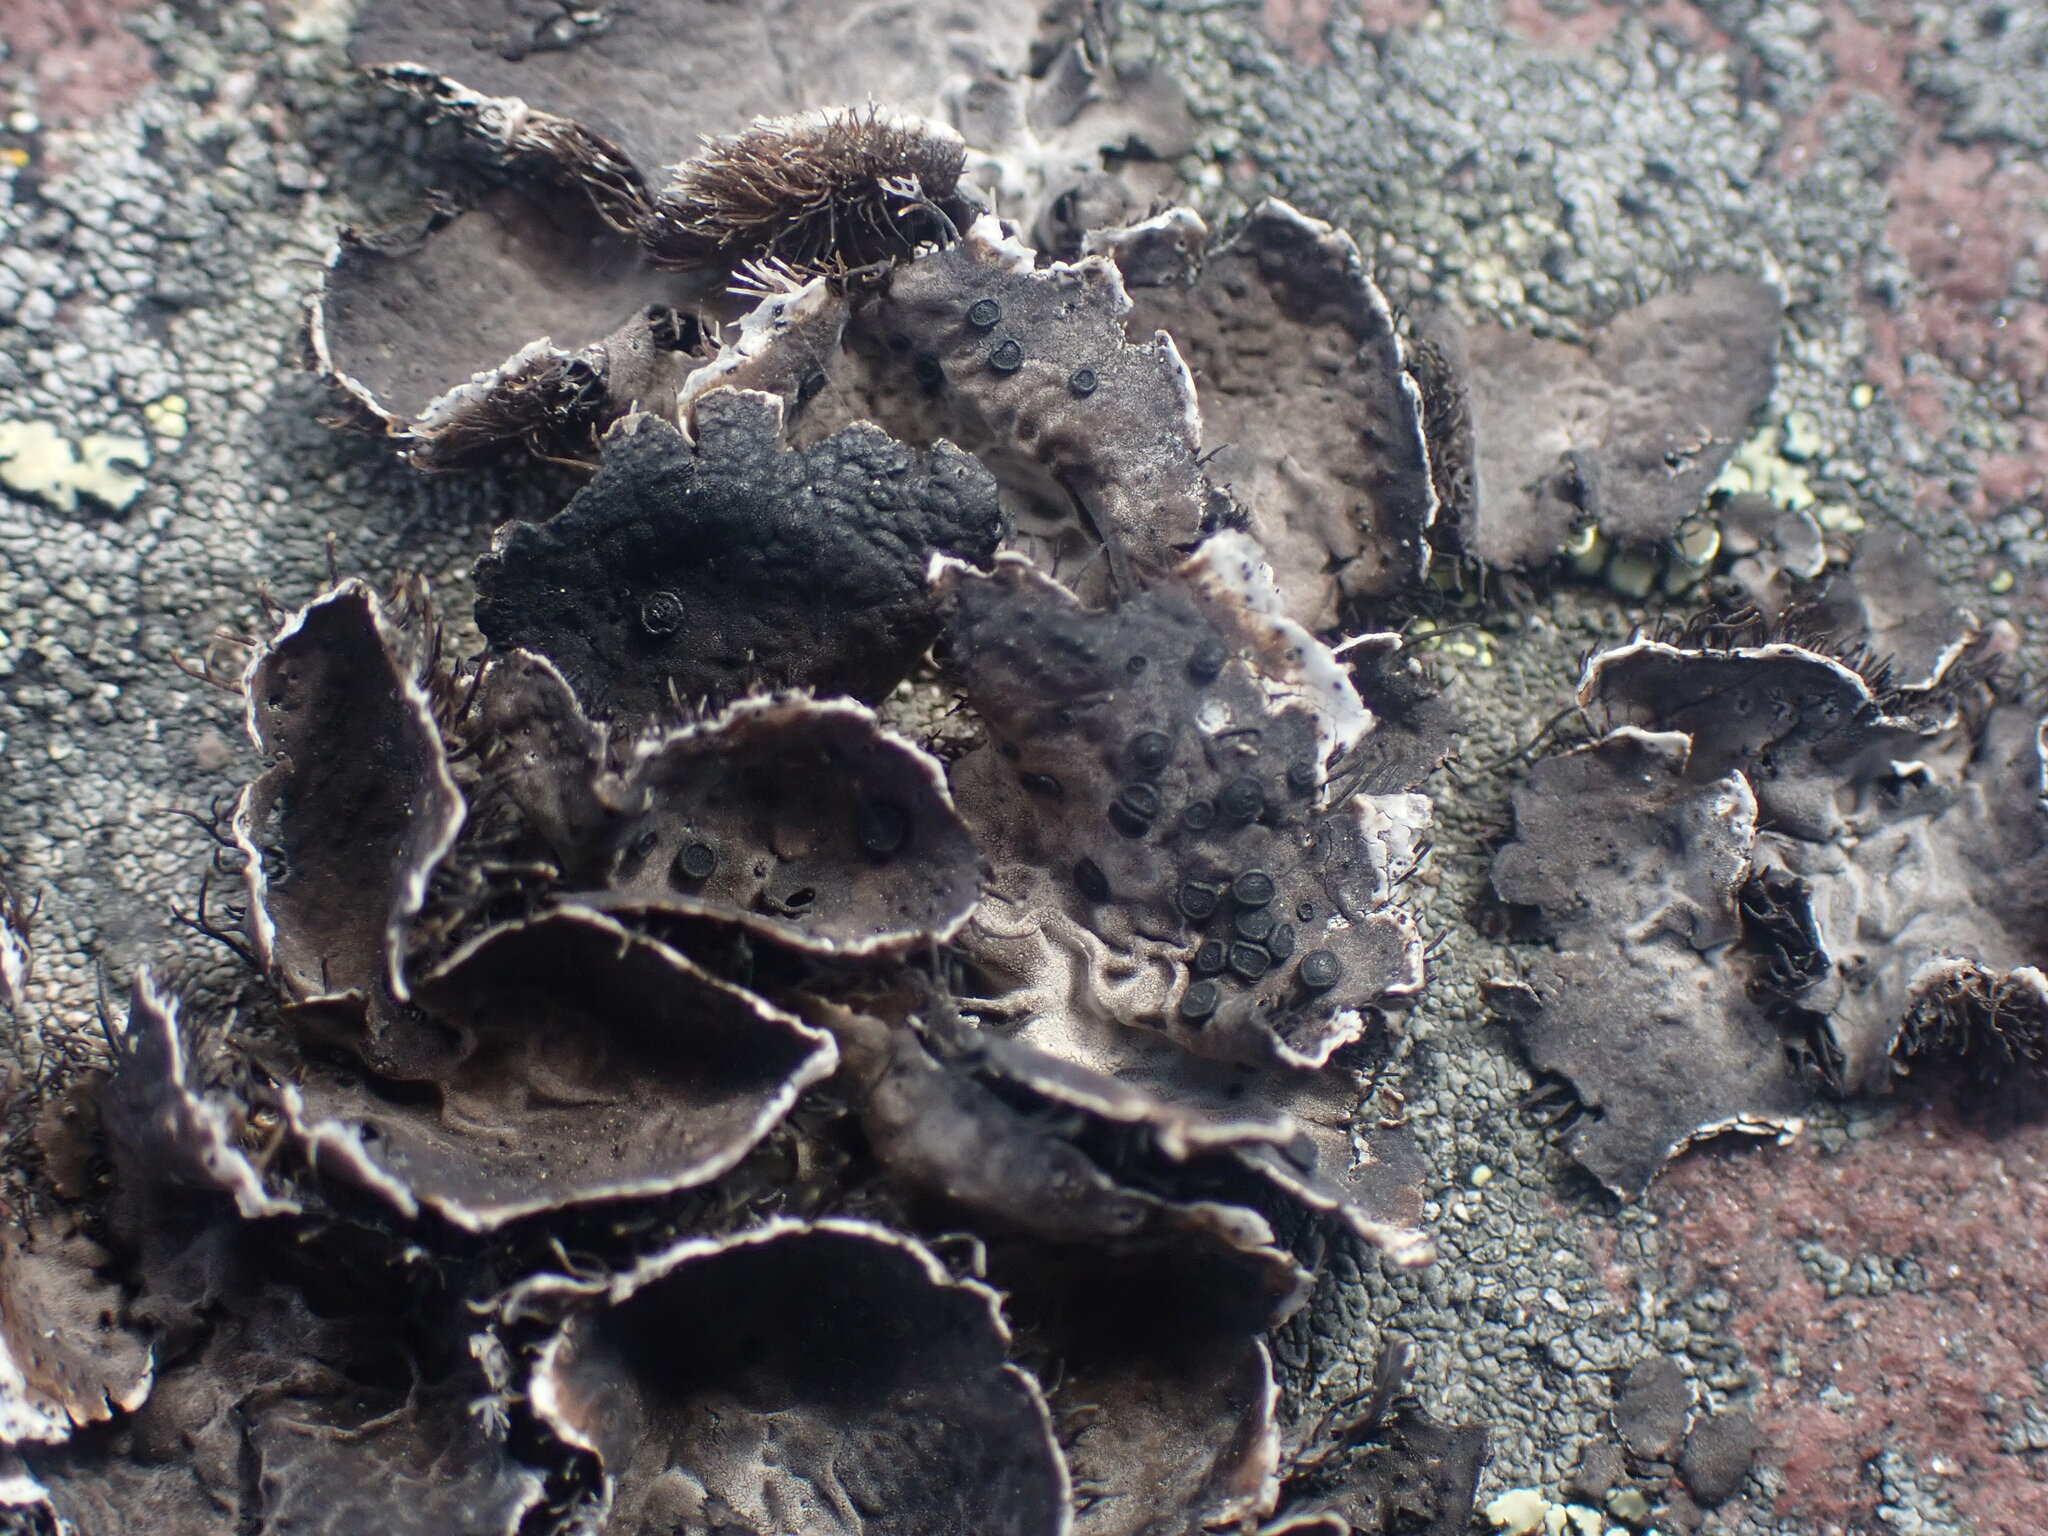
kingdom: Fungi
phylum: Ascomycota
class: Lecanoromycetes
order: Umbilicariales
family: Umbilicariaceae
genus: Umbilicaria
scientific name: Umbilicaria cylindrica
